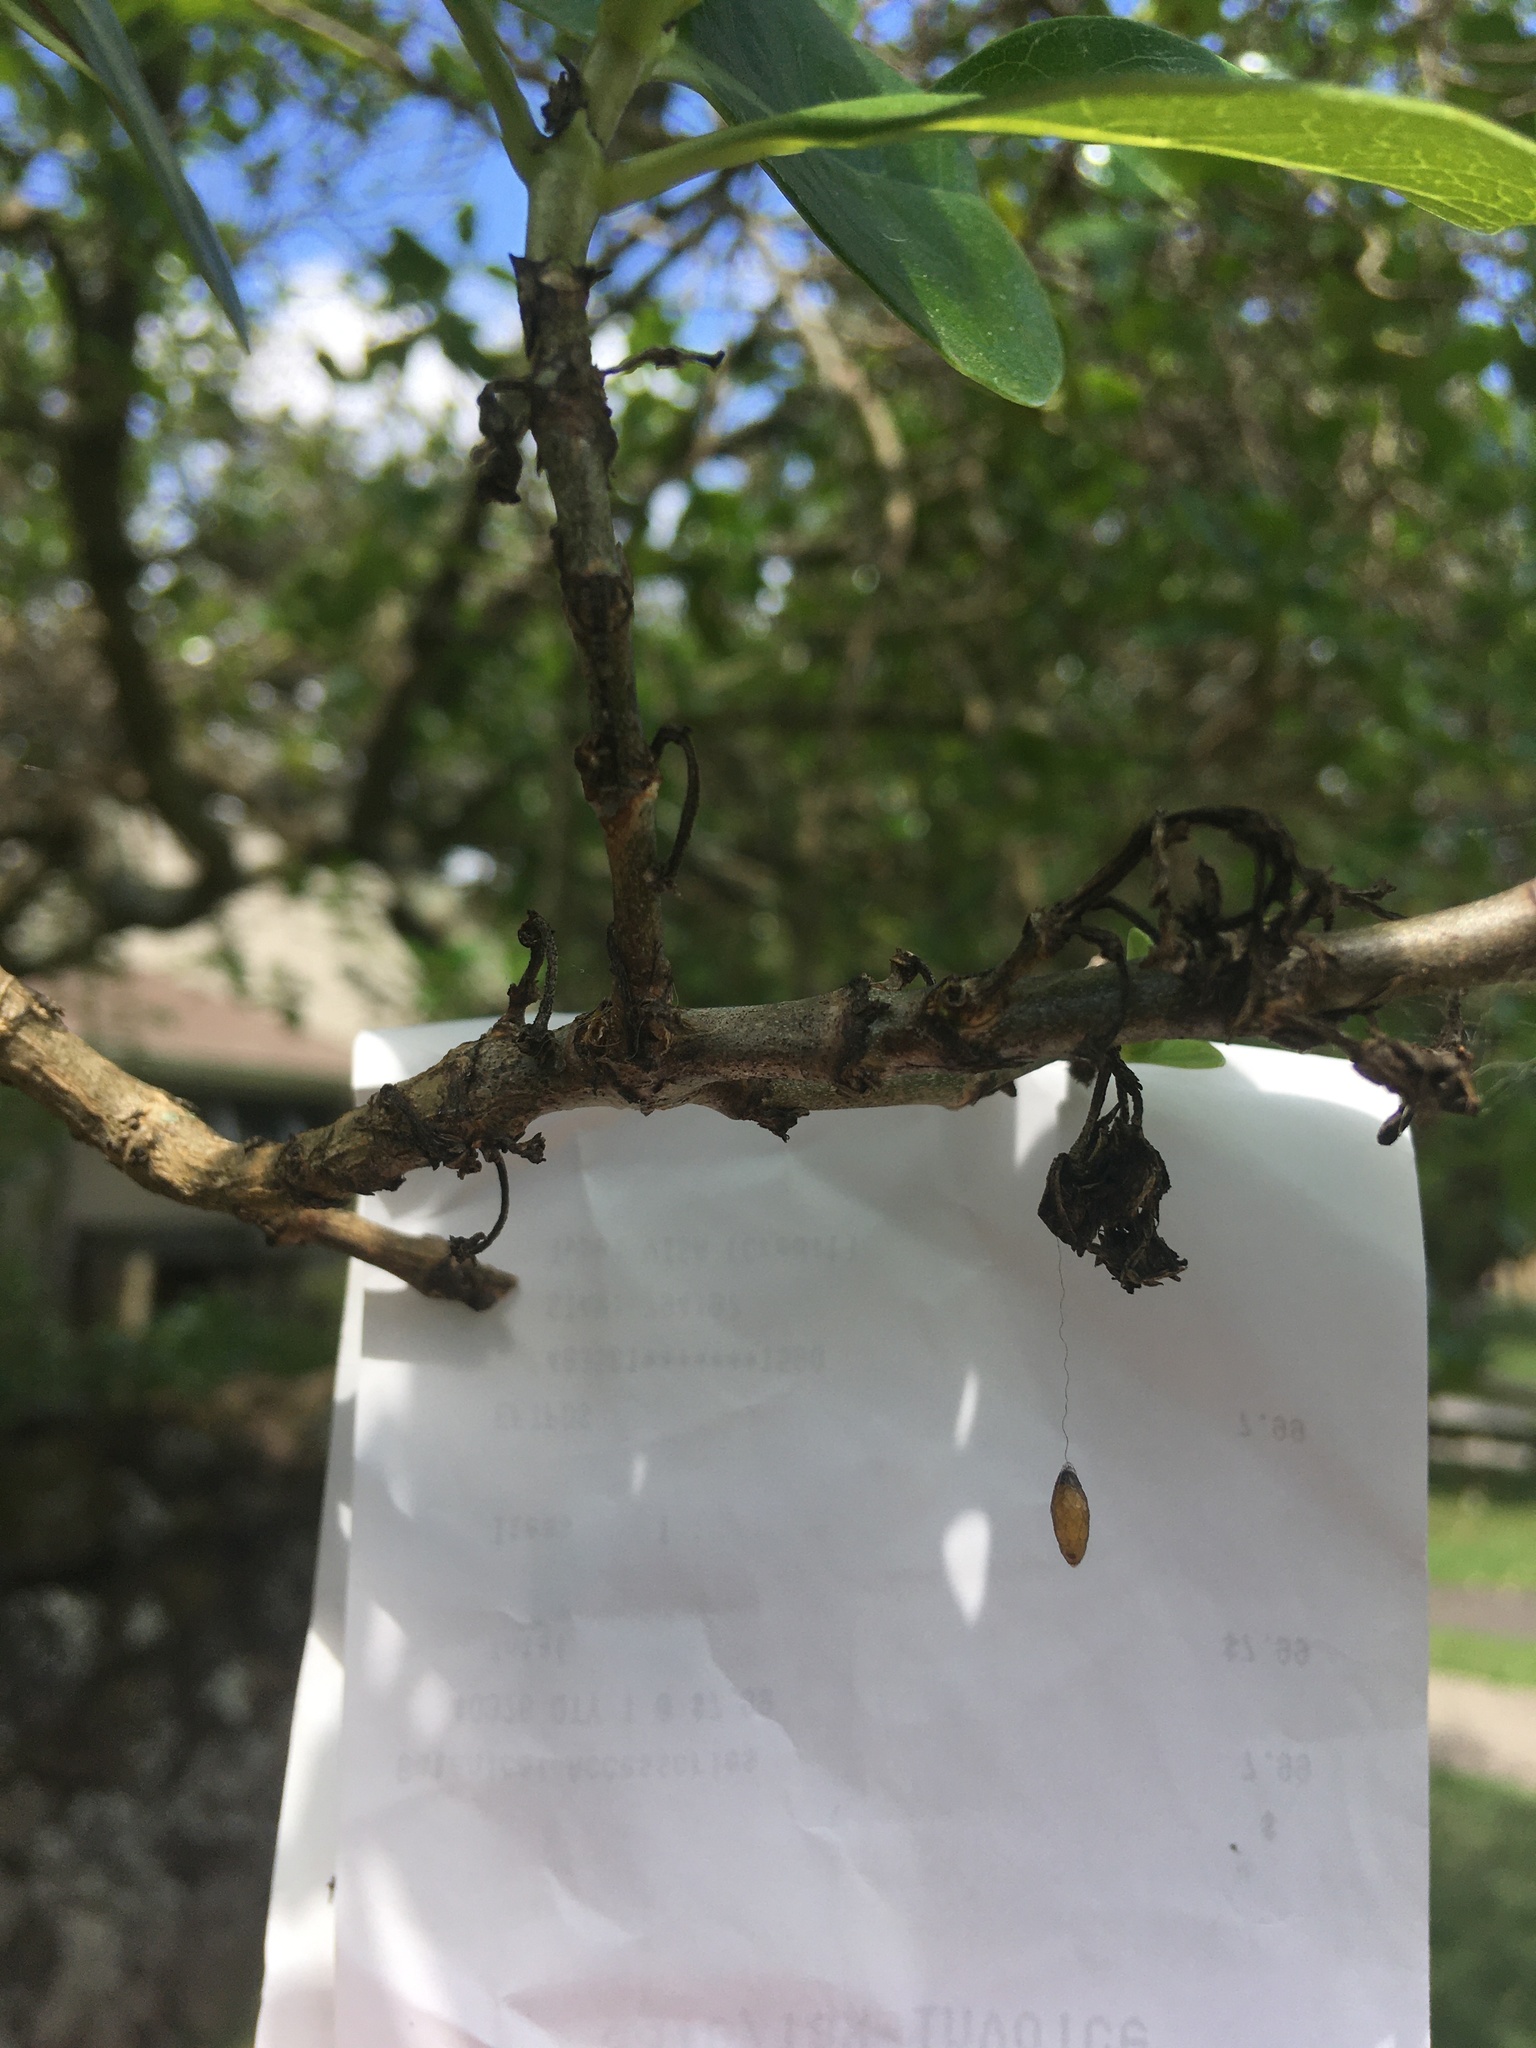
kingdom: Animalia
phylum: Arthropoda
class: Insecta
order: Hymenoptera
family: Braconidae
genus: Meteorus
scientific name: Meteorus pulchricornis
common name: Braconid wasp
